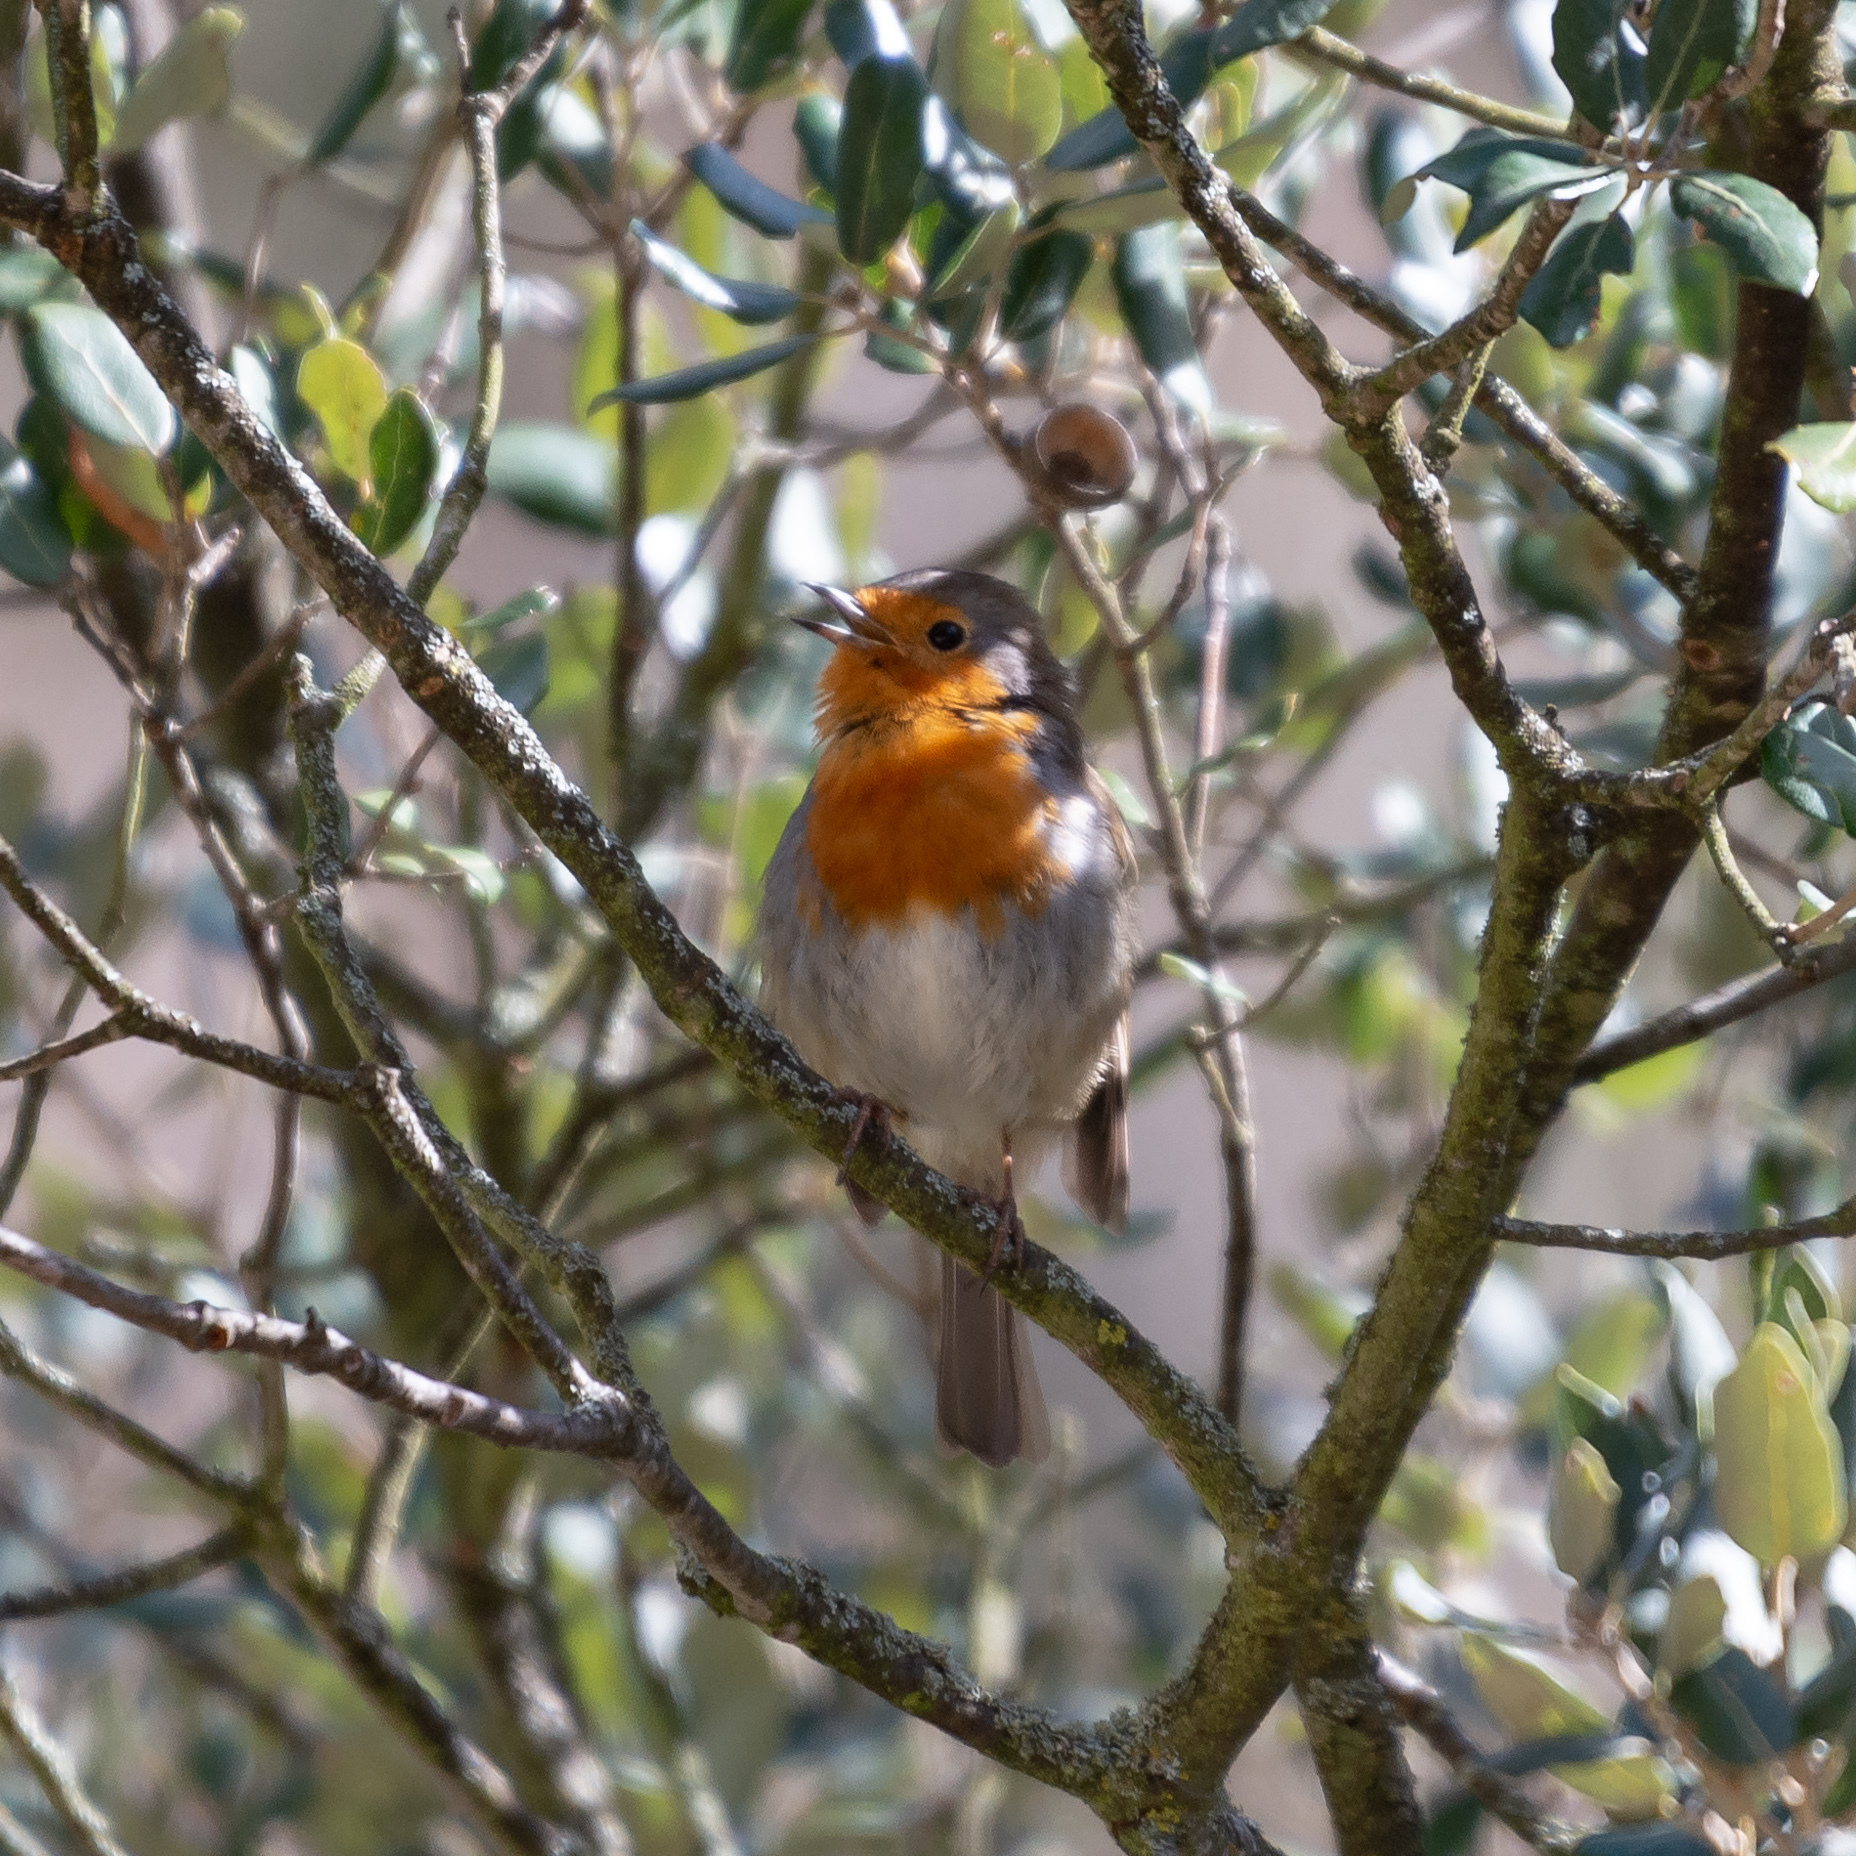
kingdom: Animalia
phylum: Chordata
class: Aves
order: Passeriformes
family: Muscicapidae
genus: Erithacus
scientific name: Erithacus rubecula
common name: European robin
